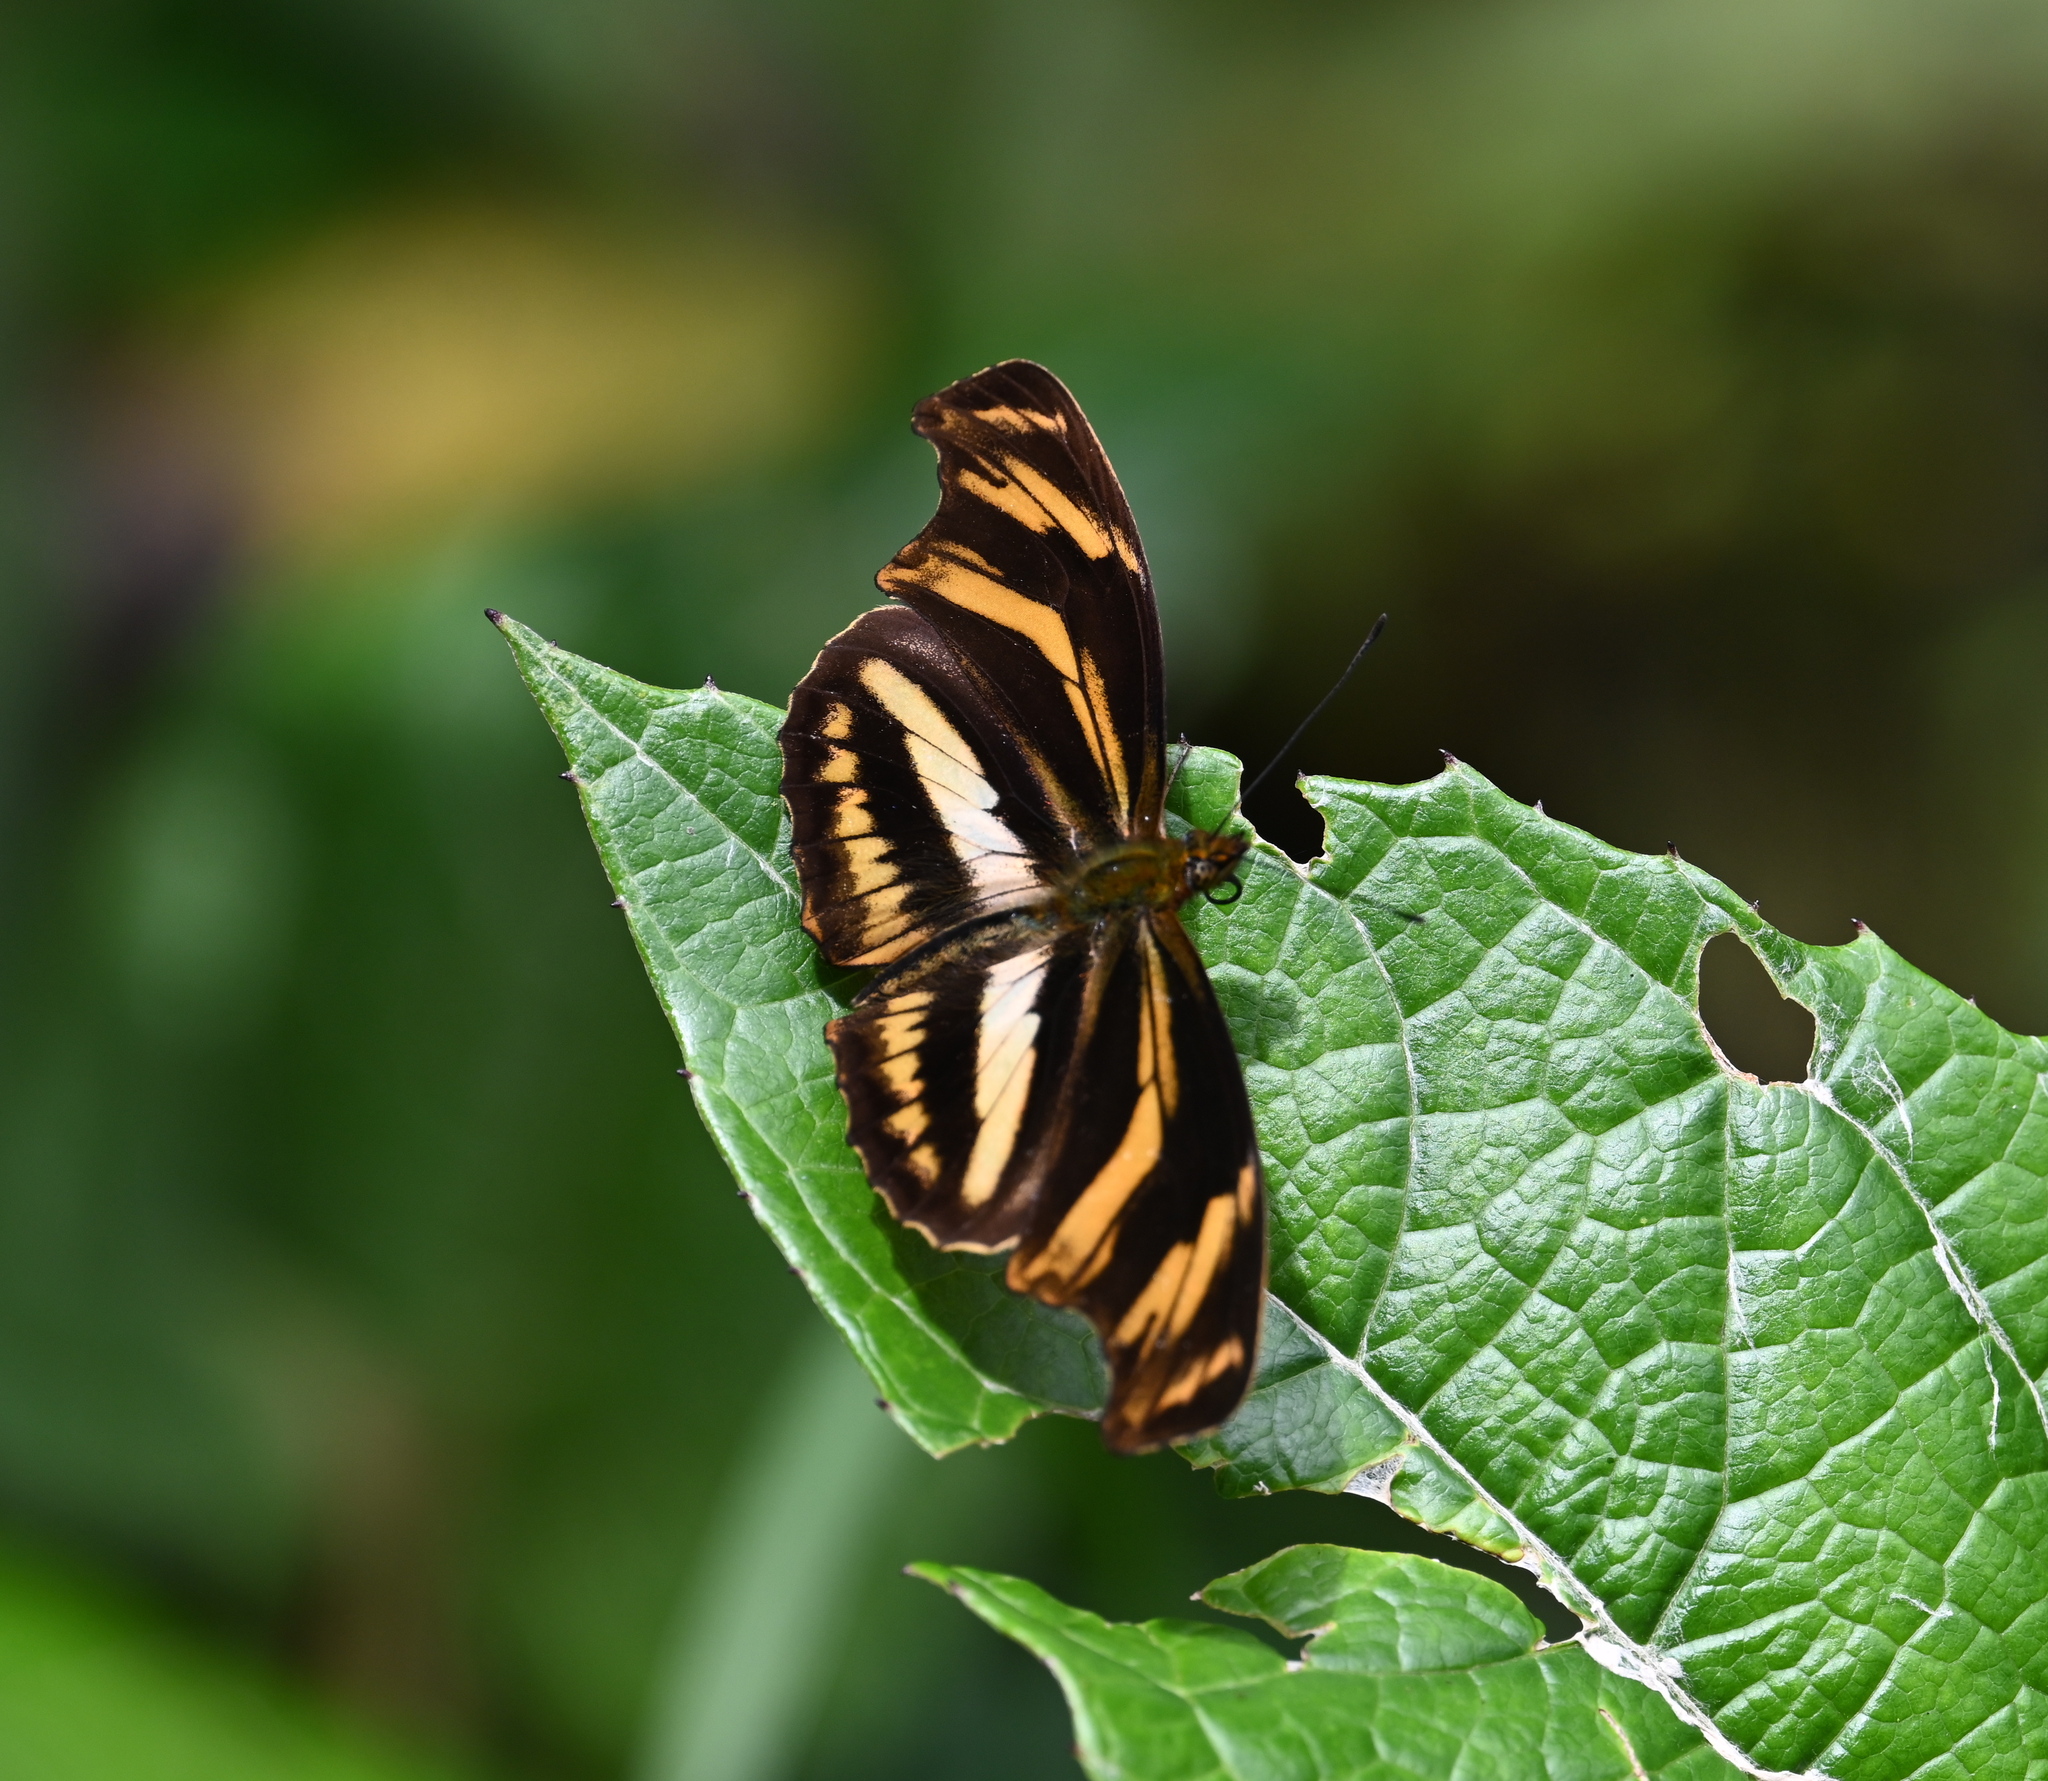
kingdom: Animalia
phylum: Arthropoda
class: Insecta
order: Lepidoptera
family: Nymphalidae
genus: Podotricha
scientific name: Podotricha judith
